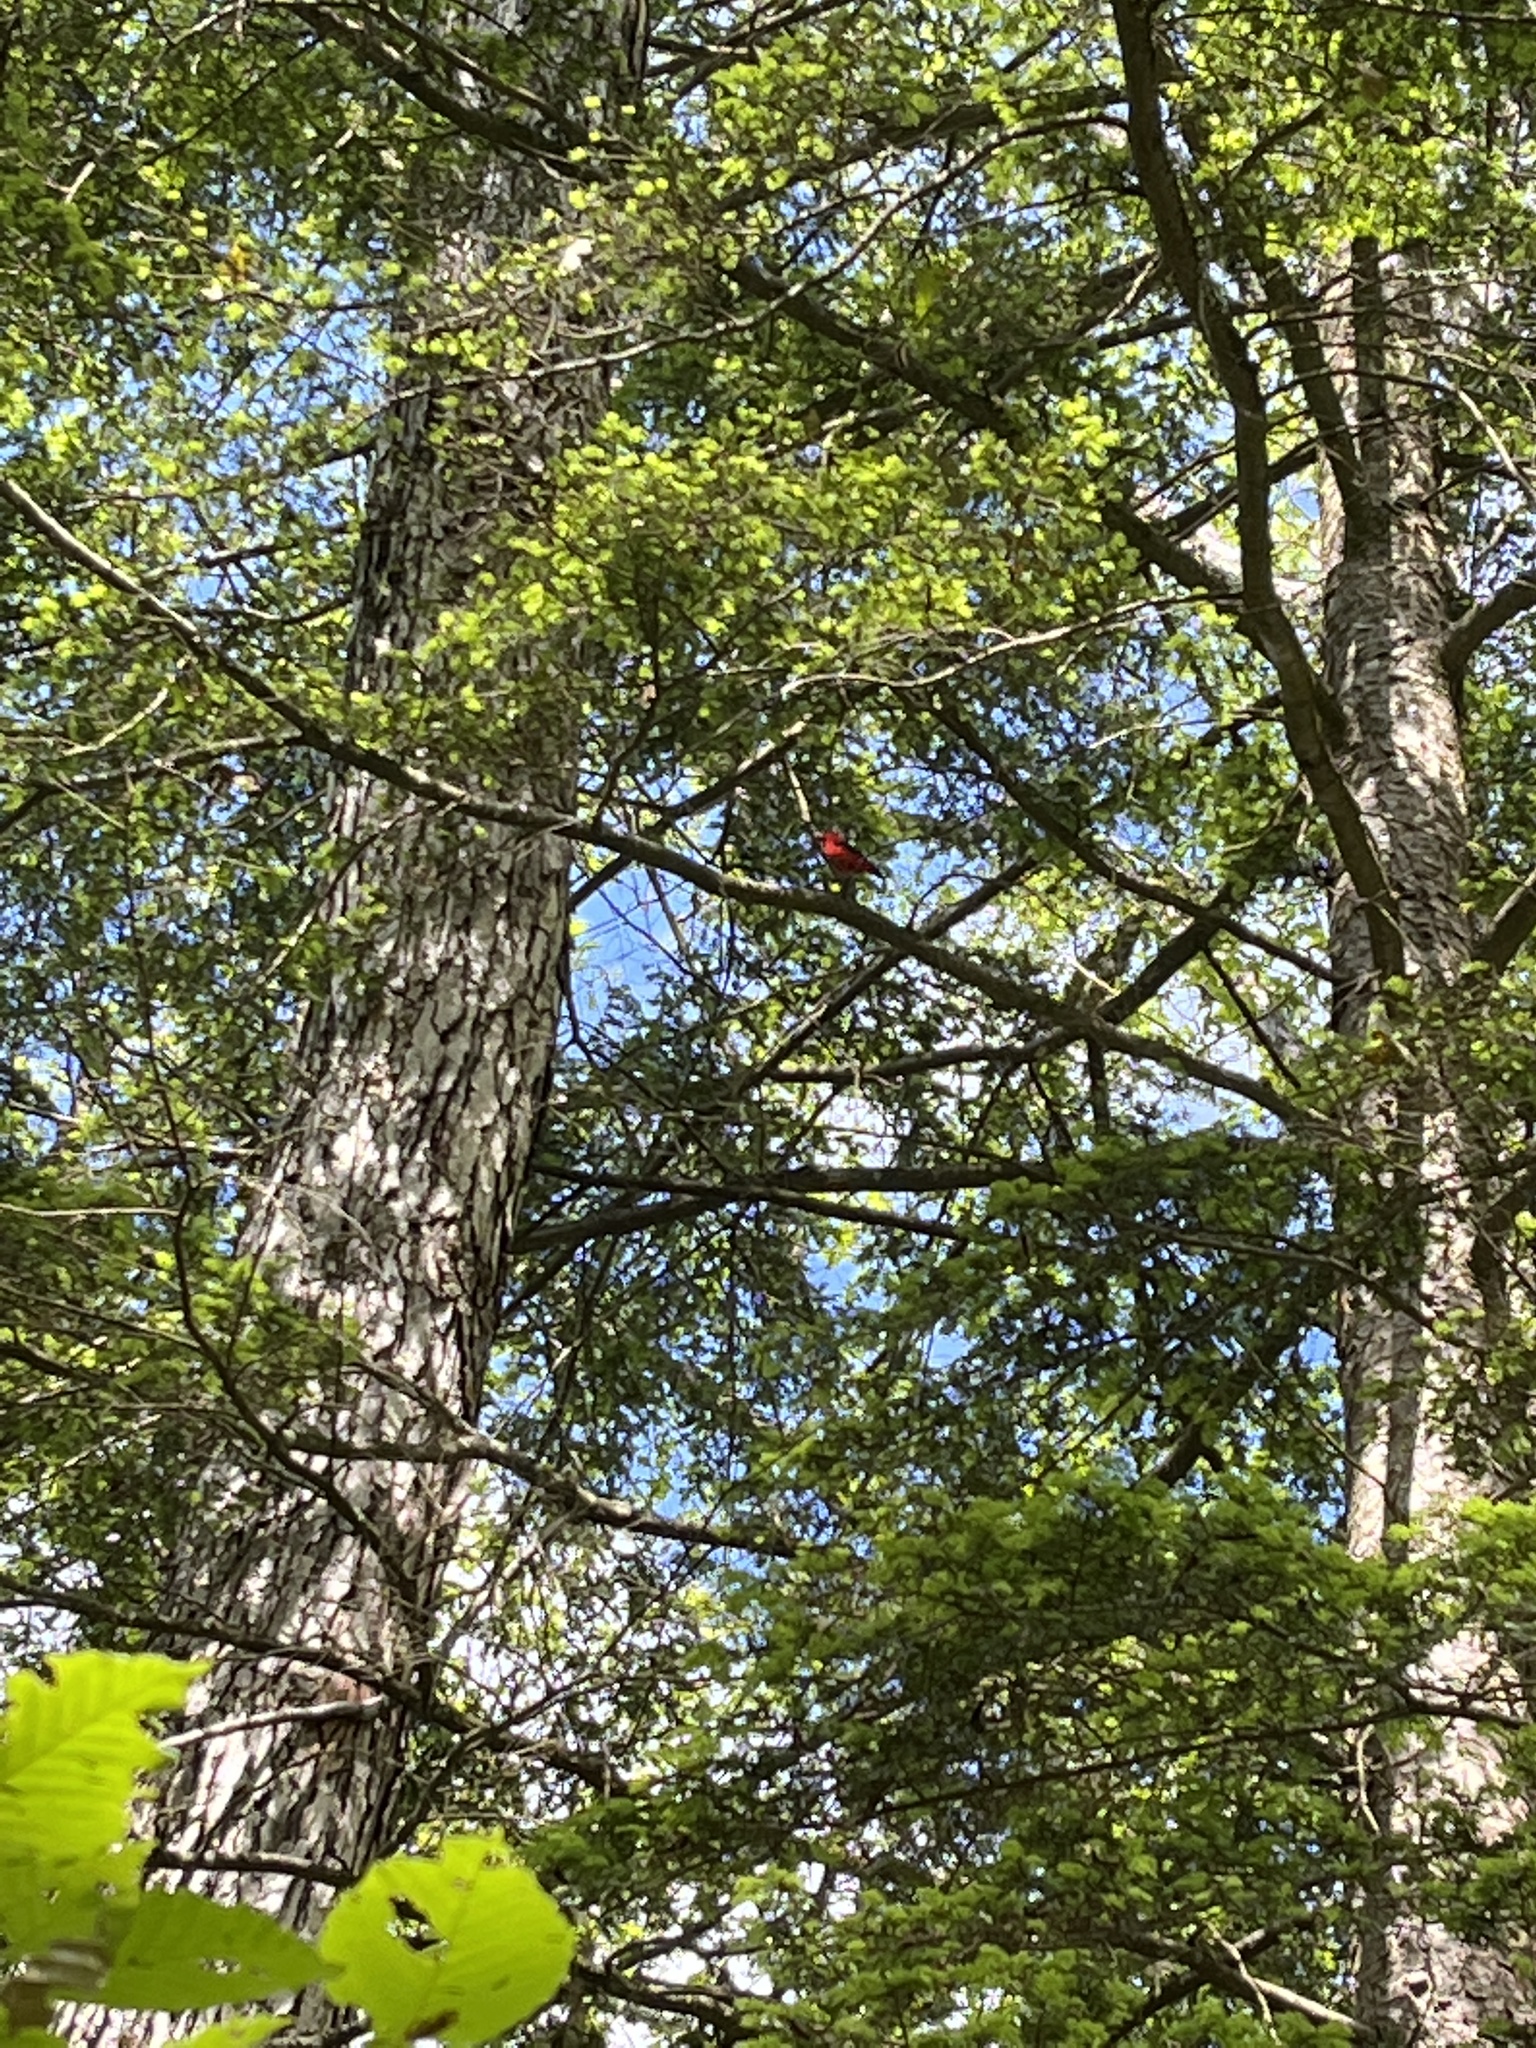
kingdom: Animalia
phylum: Chordata
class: Aves
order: Passeriformes
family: Cardinalidae
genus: Piranga
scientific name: Piranga olivacea
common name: Scarlet tanager
